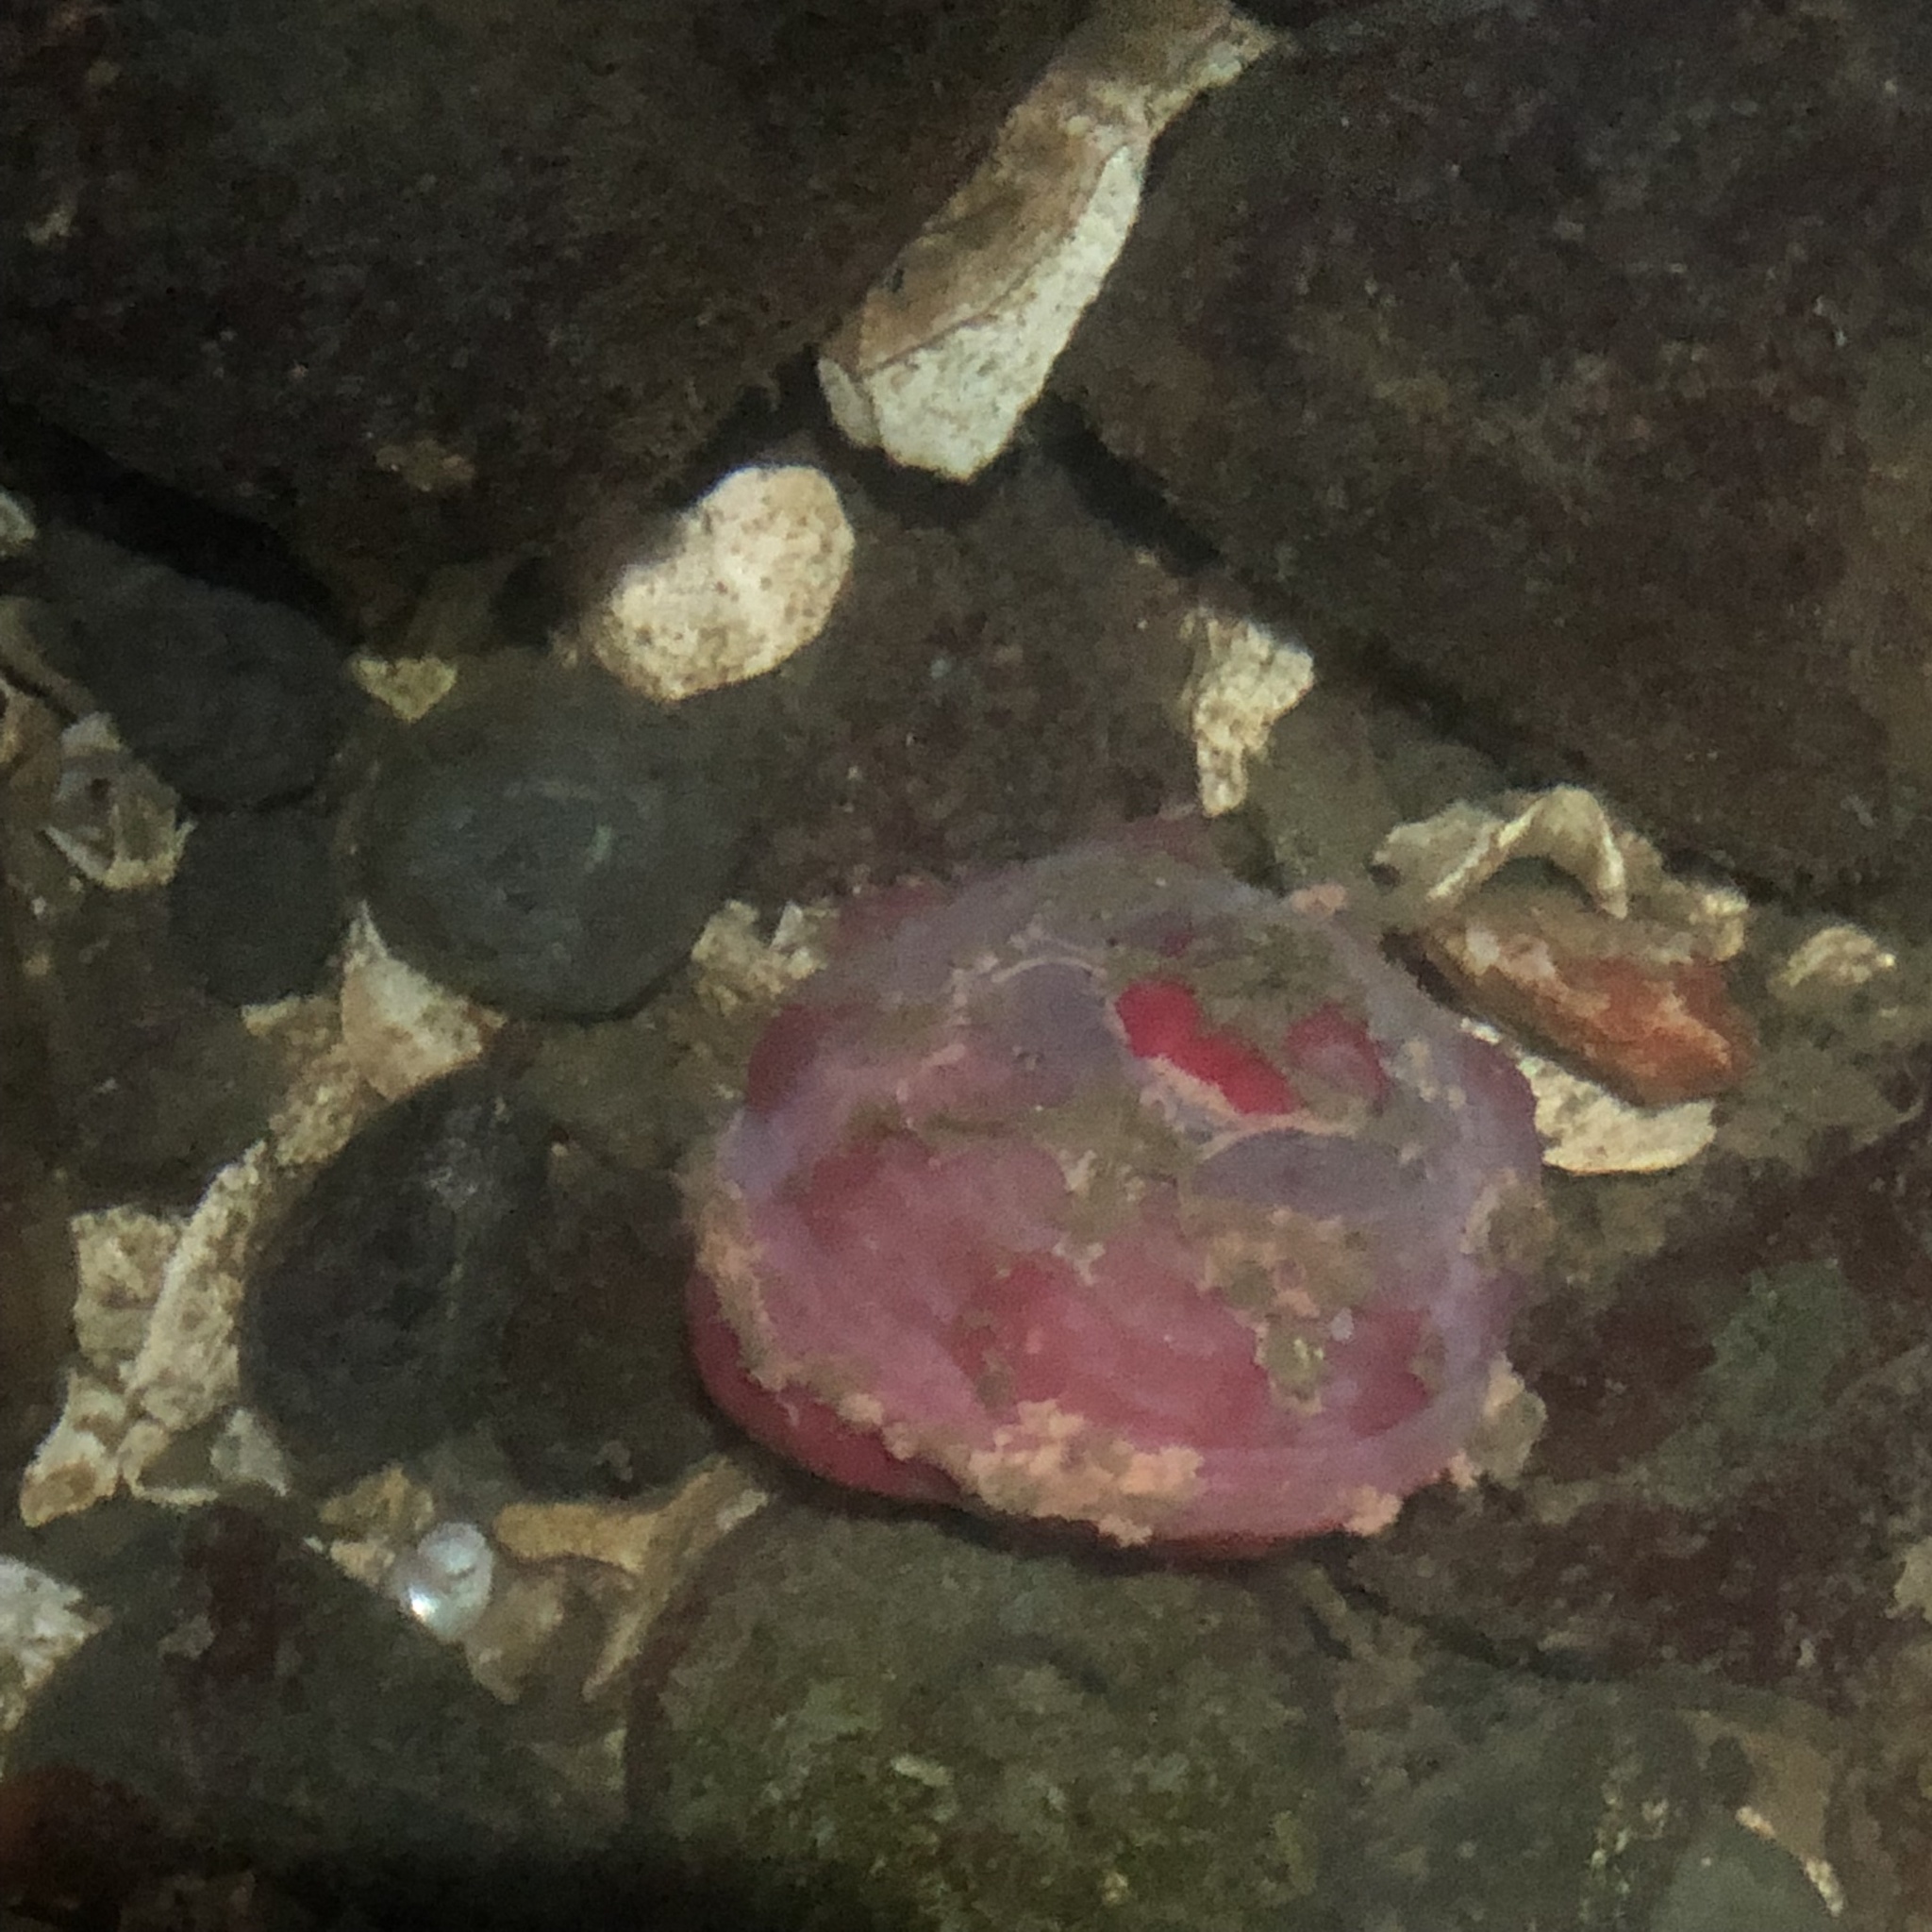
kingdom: Animalia
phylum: Cnidaria
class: Anthozoa
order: Actiniaria
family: Actiniidae
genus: Urticina
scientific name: Urticina clandestina
